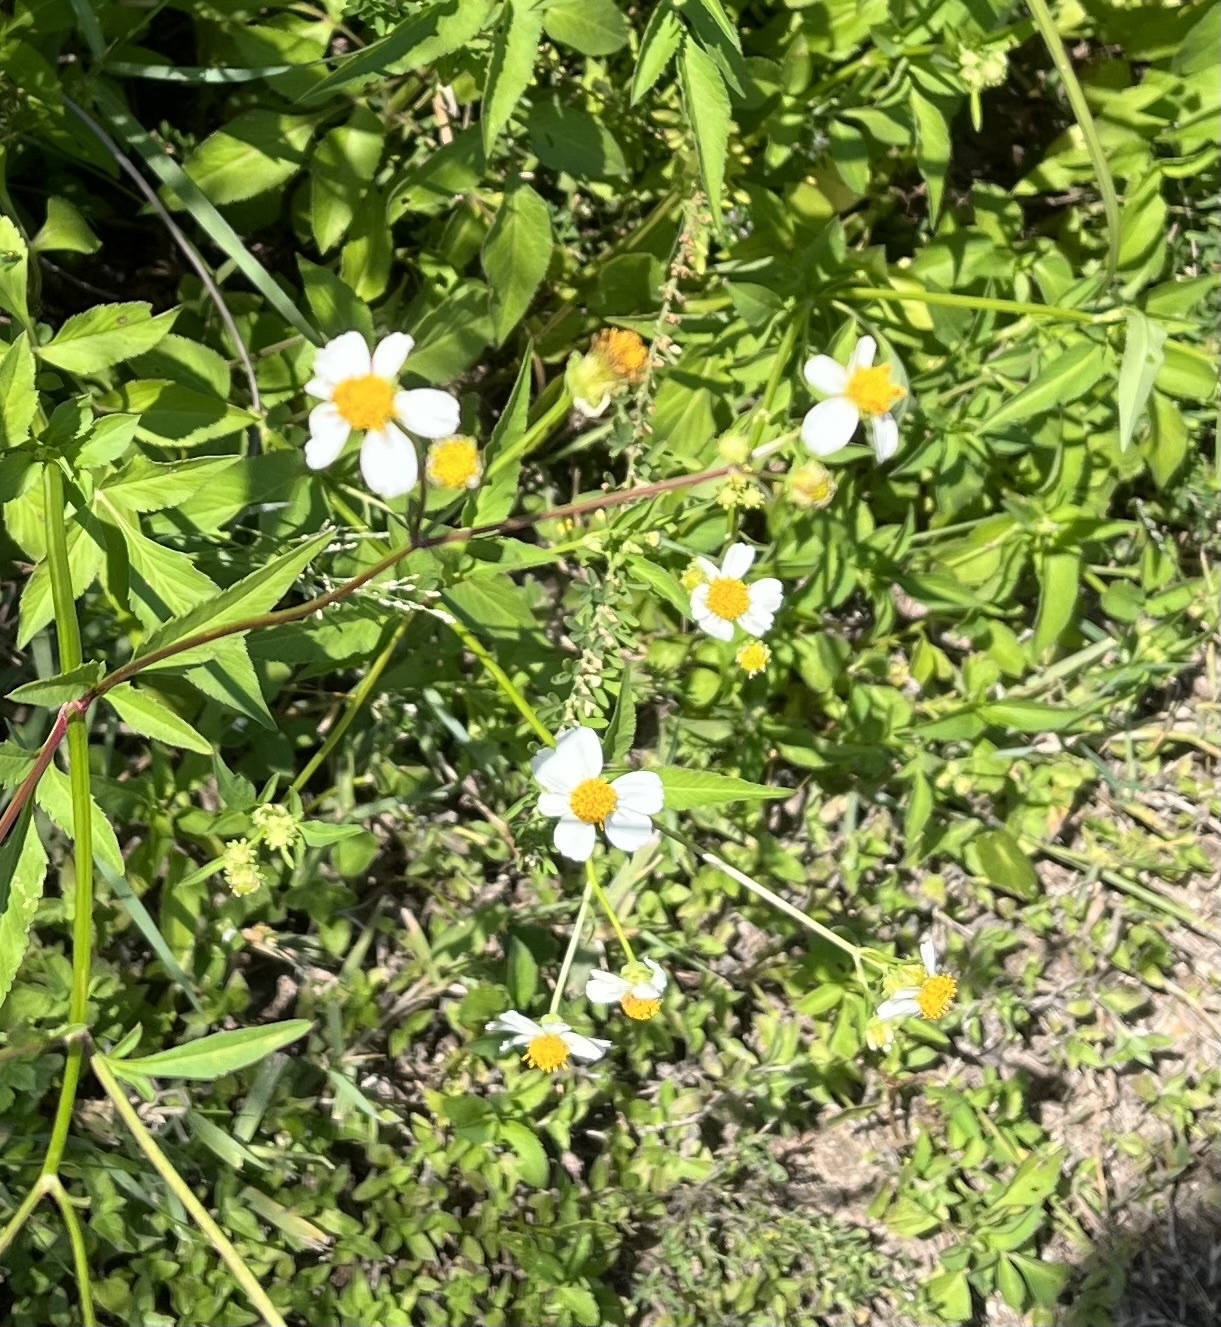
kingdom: Plantae
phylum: Tracheophyta
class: Magnoliopsida
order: Asterales
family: Asteraceae
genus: Bidens
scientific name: Bidens alba
